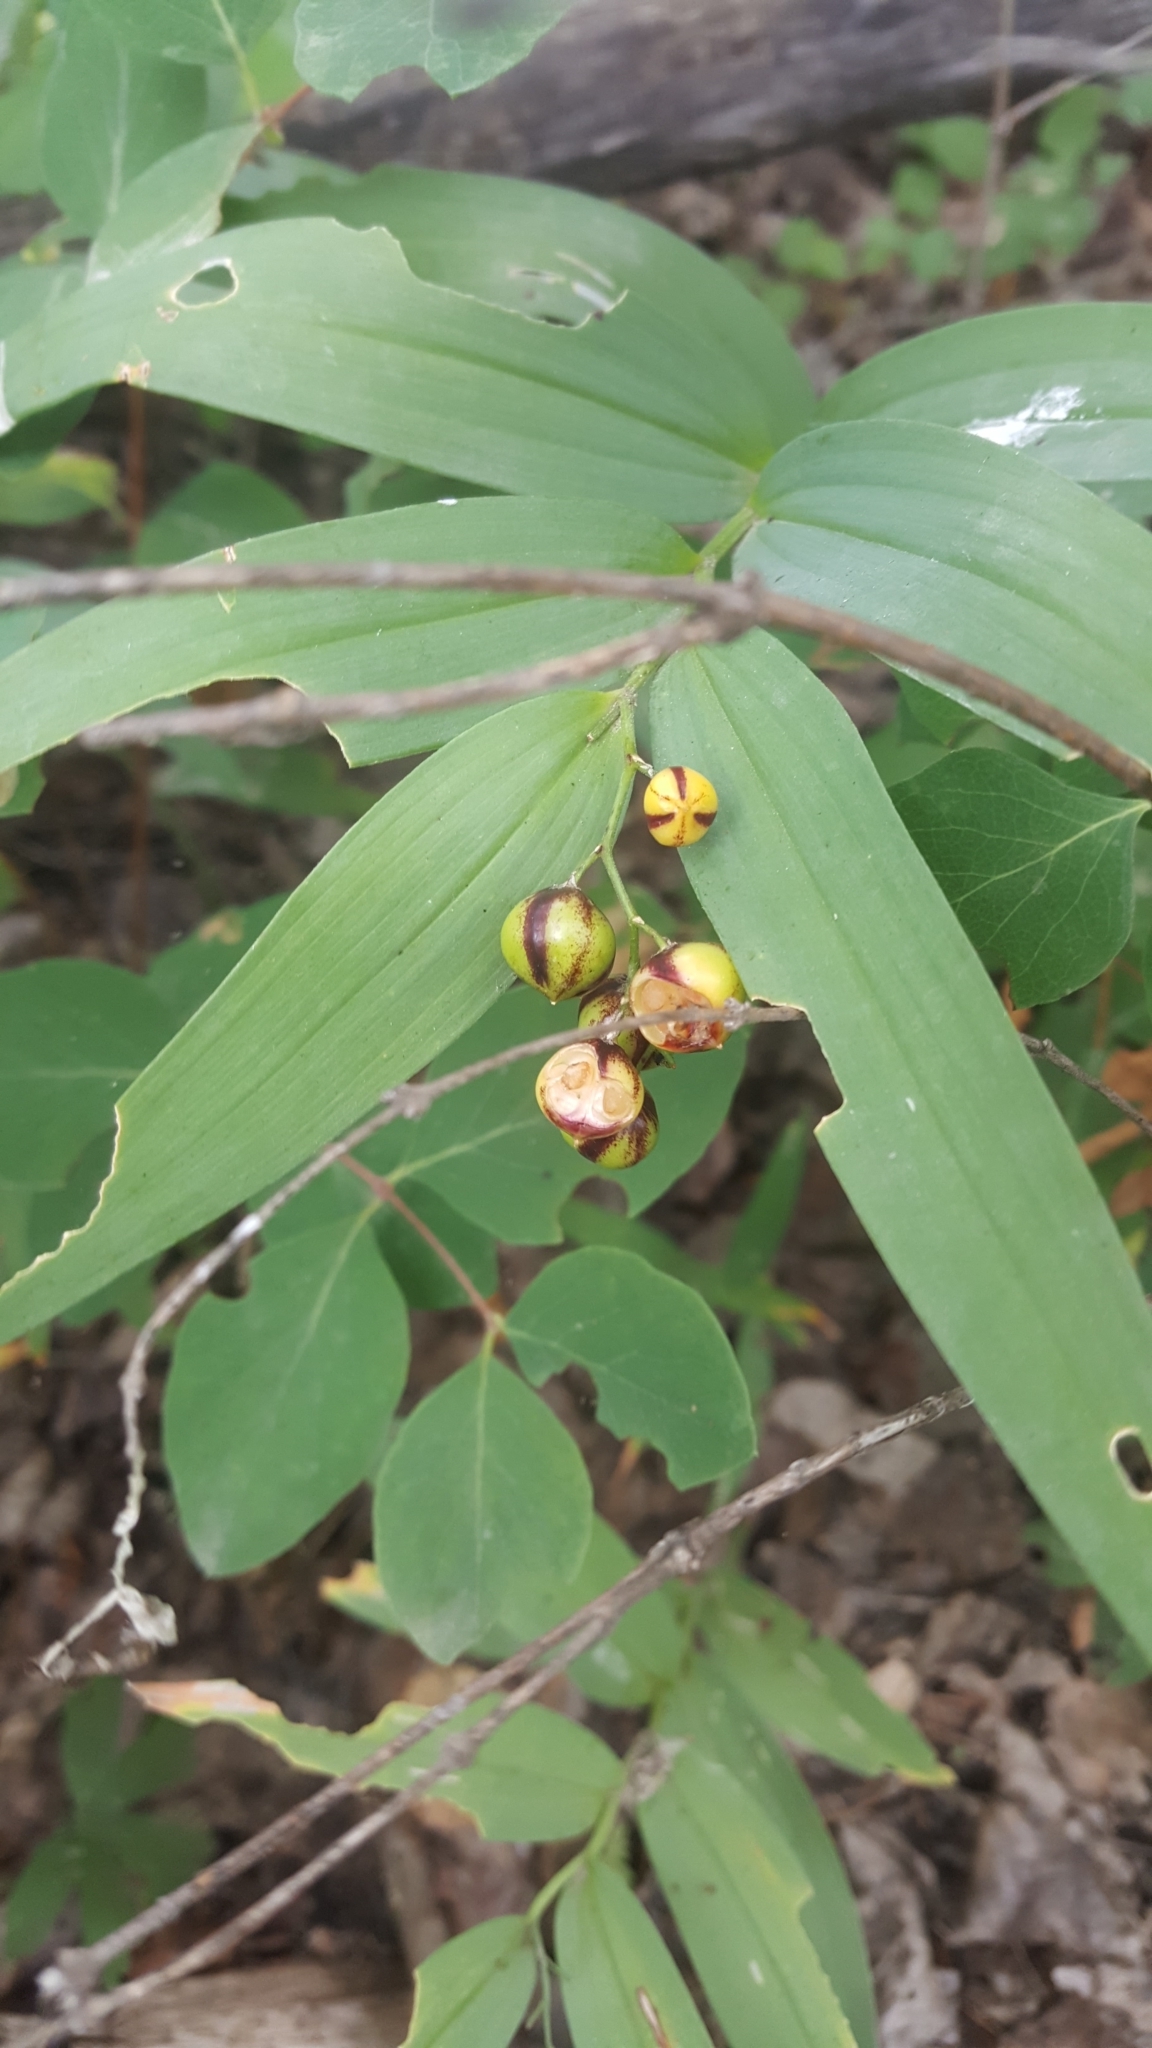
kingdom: Plantae
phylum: Tracheophyta
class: Liliopsida
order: Asparagales
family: Asparagaceae
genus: Maianthemum
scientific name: Maianthemum stellatum
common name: Little false solomon's seal
